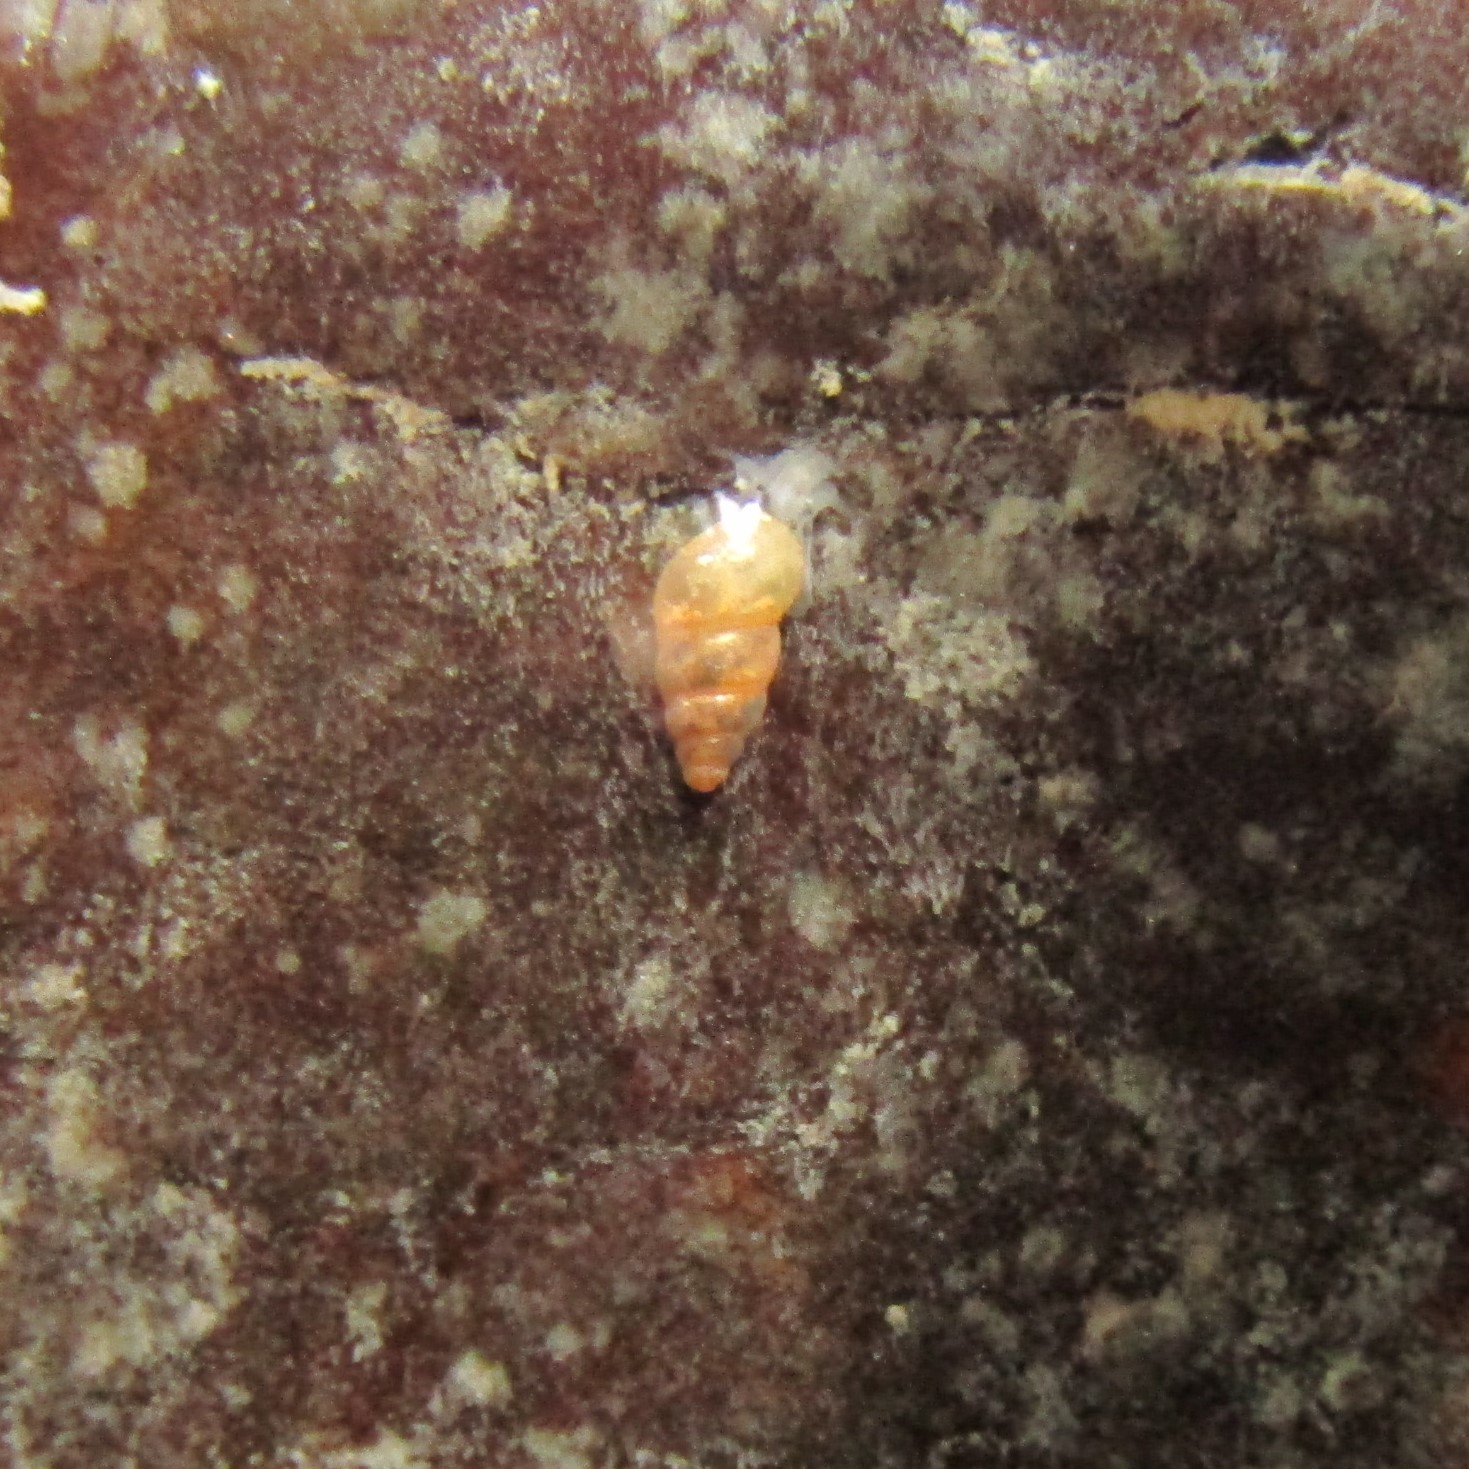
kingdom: Animalia
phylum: Mollusca
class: Gastropoda
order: Littorinimorpha
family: Tateidae
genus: Potamopyrgus
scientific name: Potamopyrgus antipodarum
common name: Jenkins' spire snail
